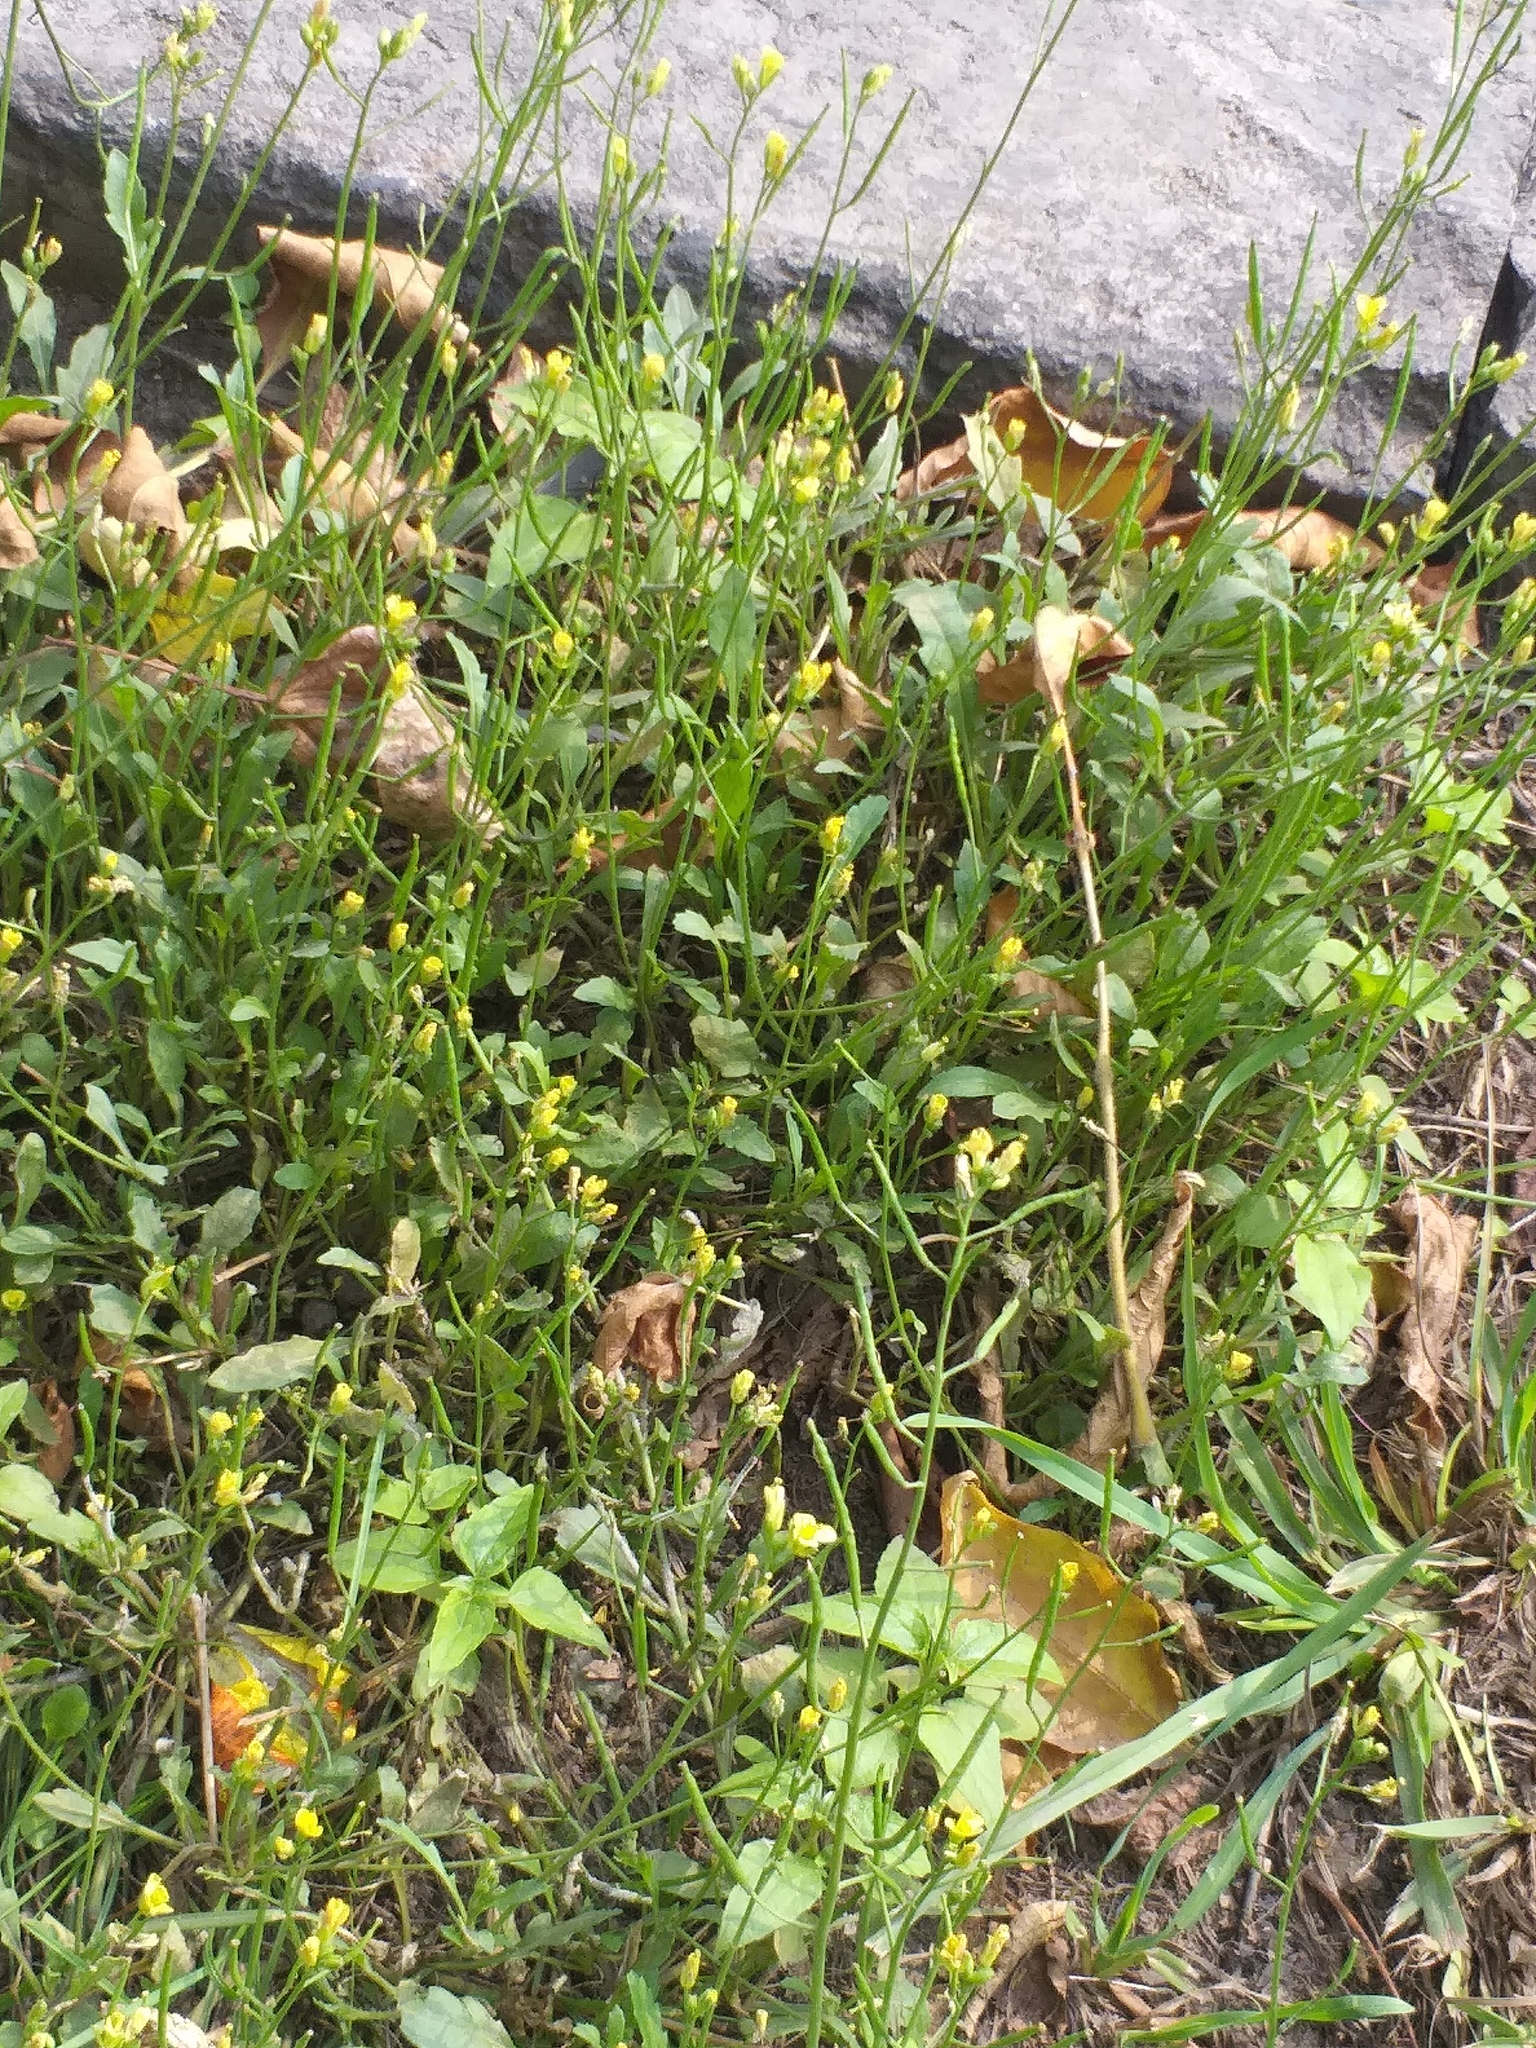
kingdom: Plantae
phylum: Tracheophyta
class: Magnoliopsida
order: Brassicales
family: Brassicaceae
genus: Diplotaxis
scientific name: Diplotaxis tenuifolia
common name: Perennial wall-rocket
